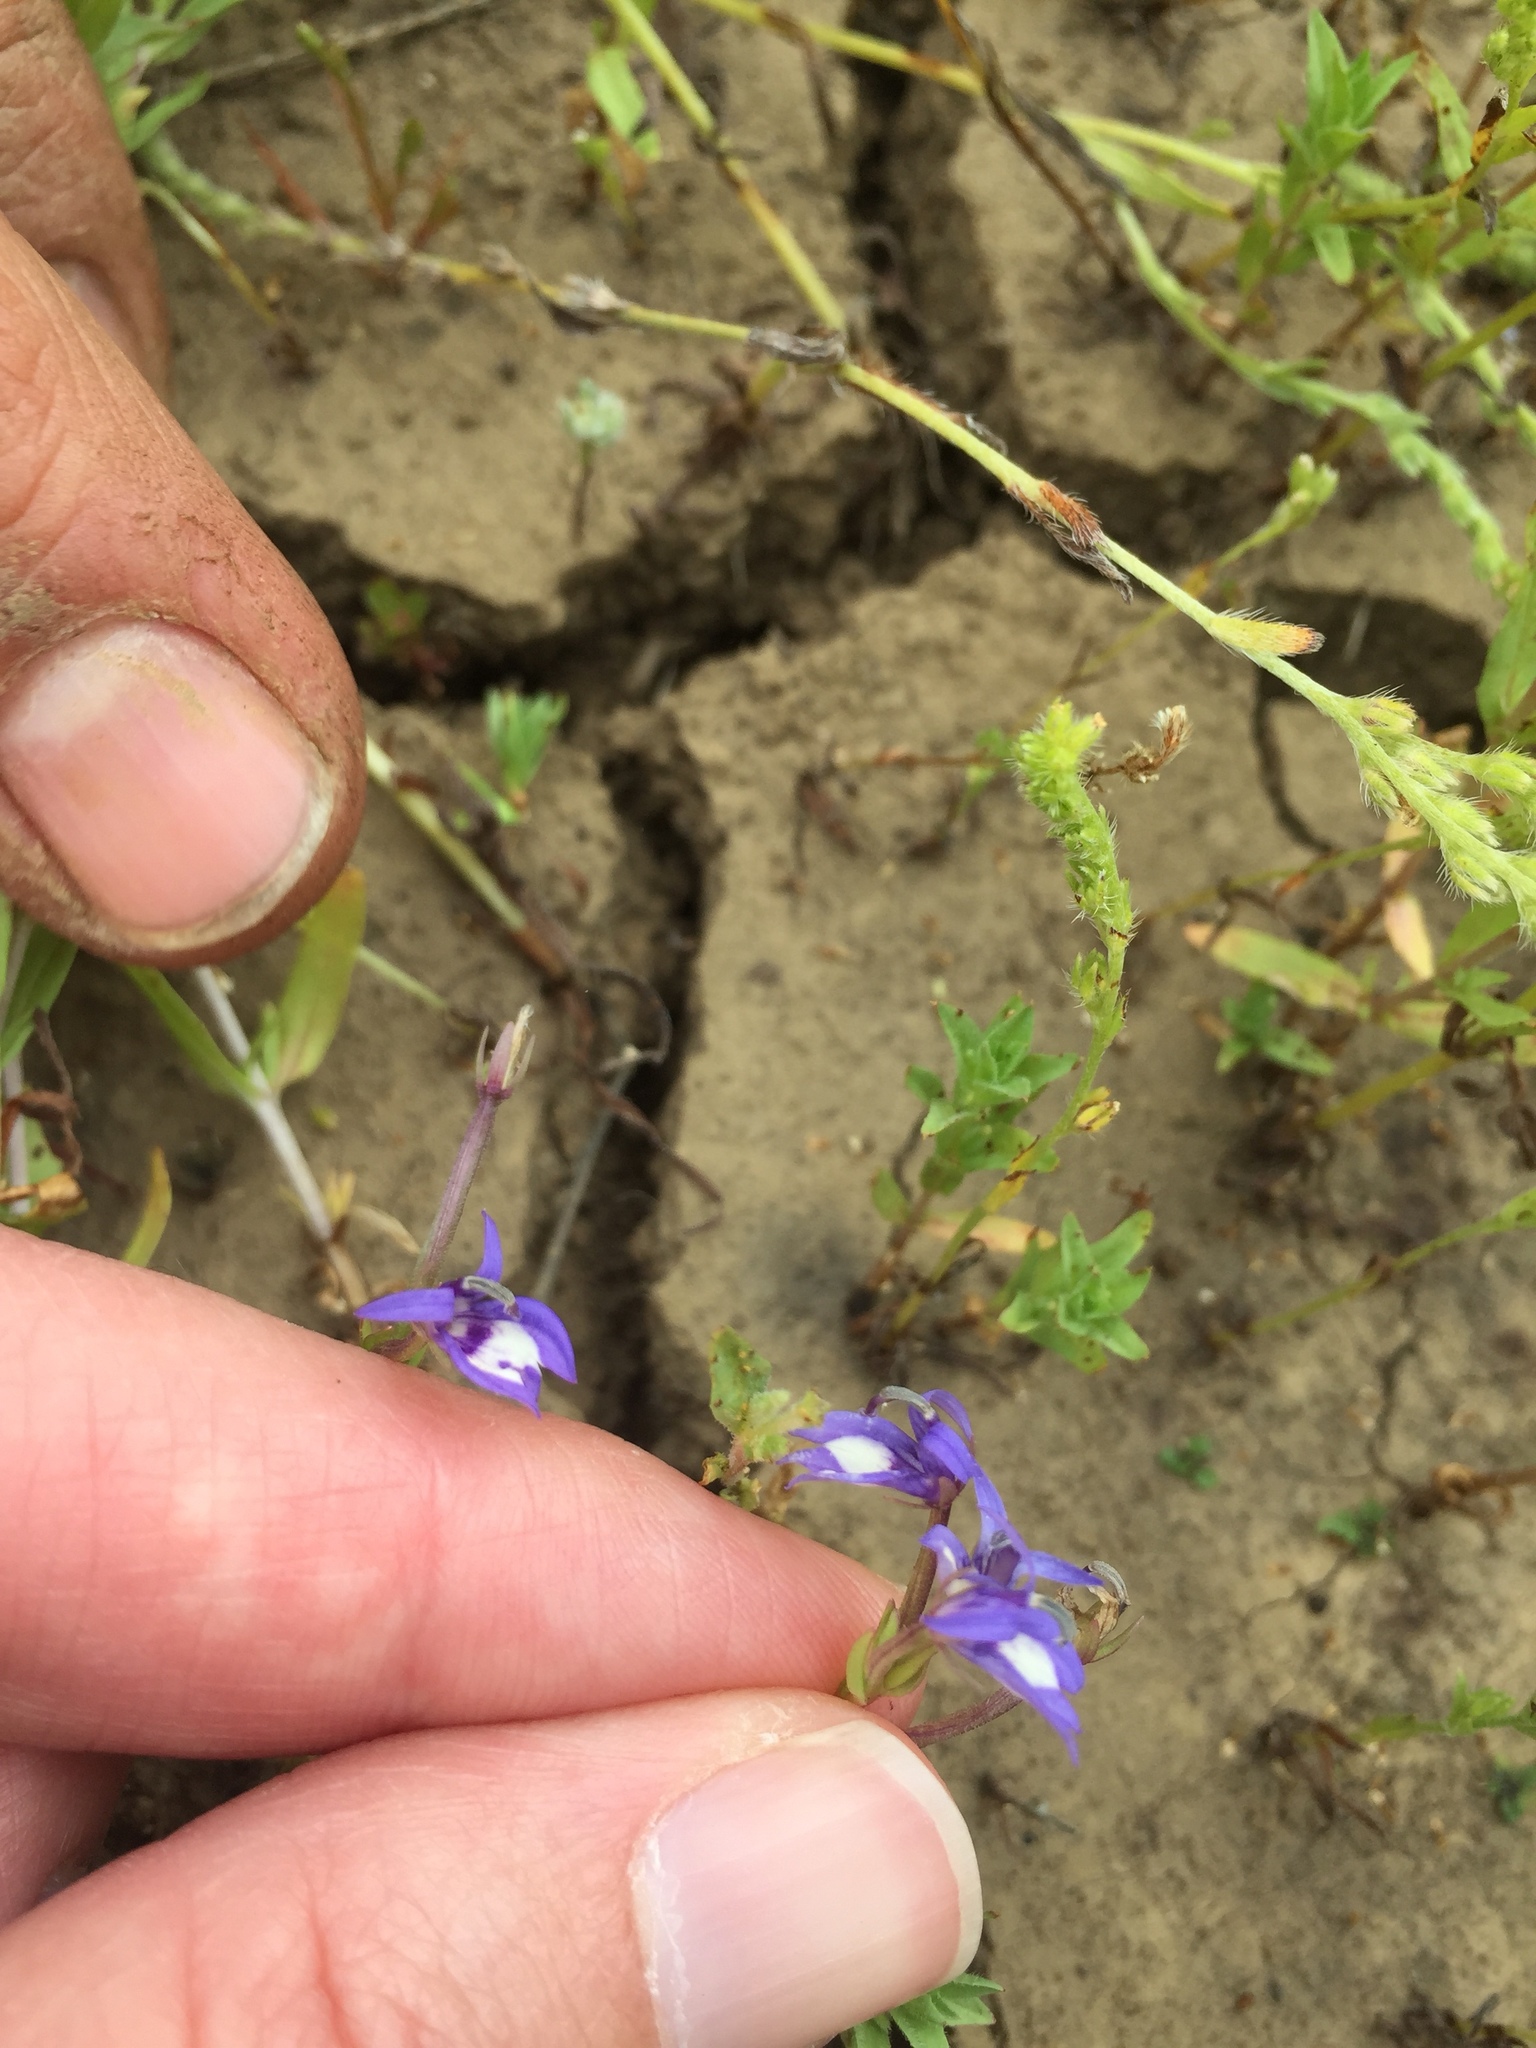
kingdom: Plantae
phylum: Tracheophyta
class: Magnoliopsida
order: Asterales
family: Campanulaceae
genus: Downingia
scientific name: Downingia elegans
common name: Californian lobelia
